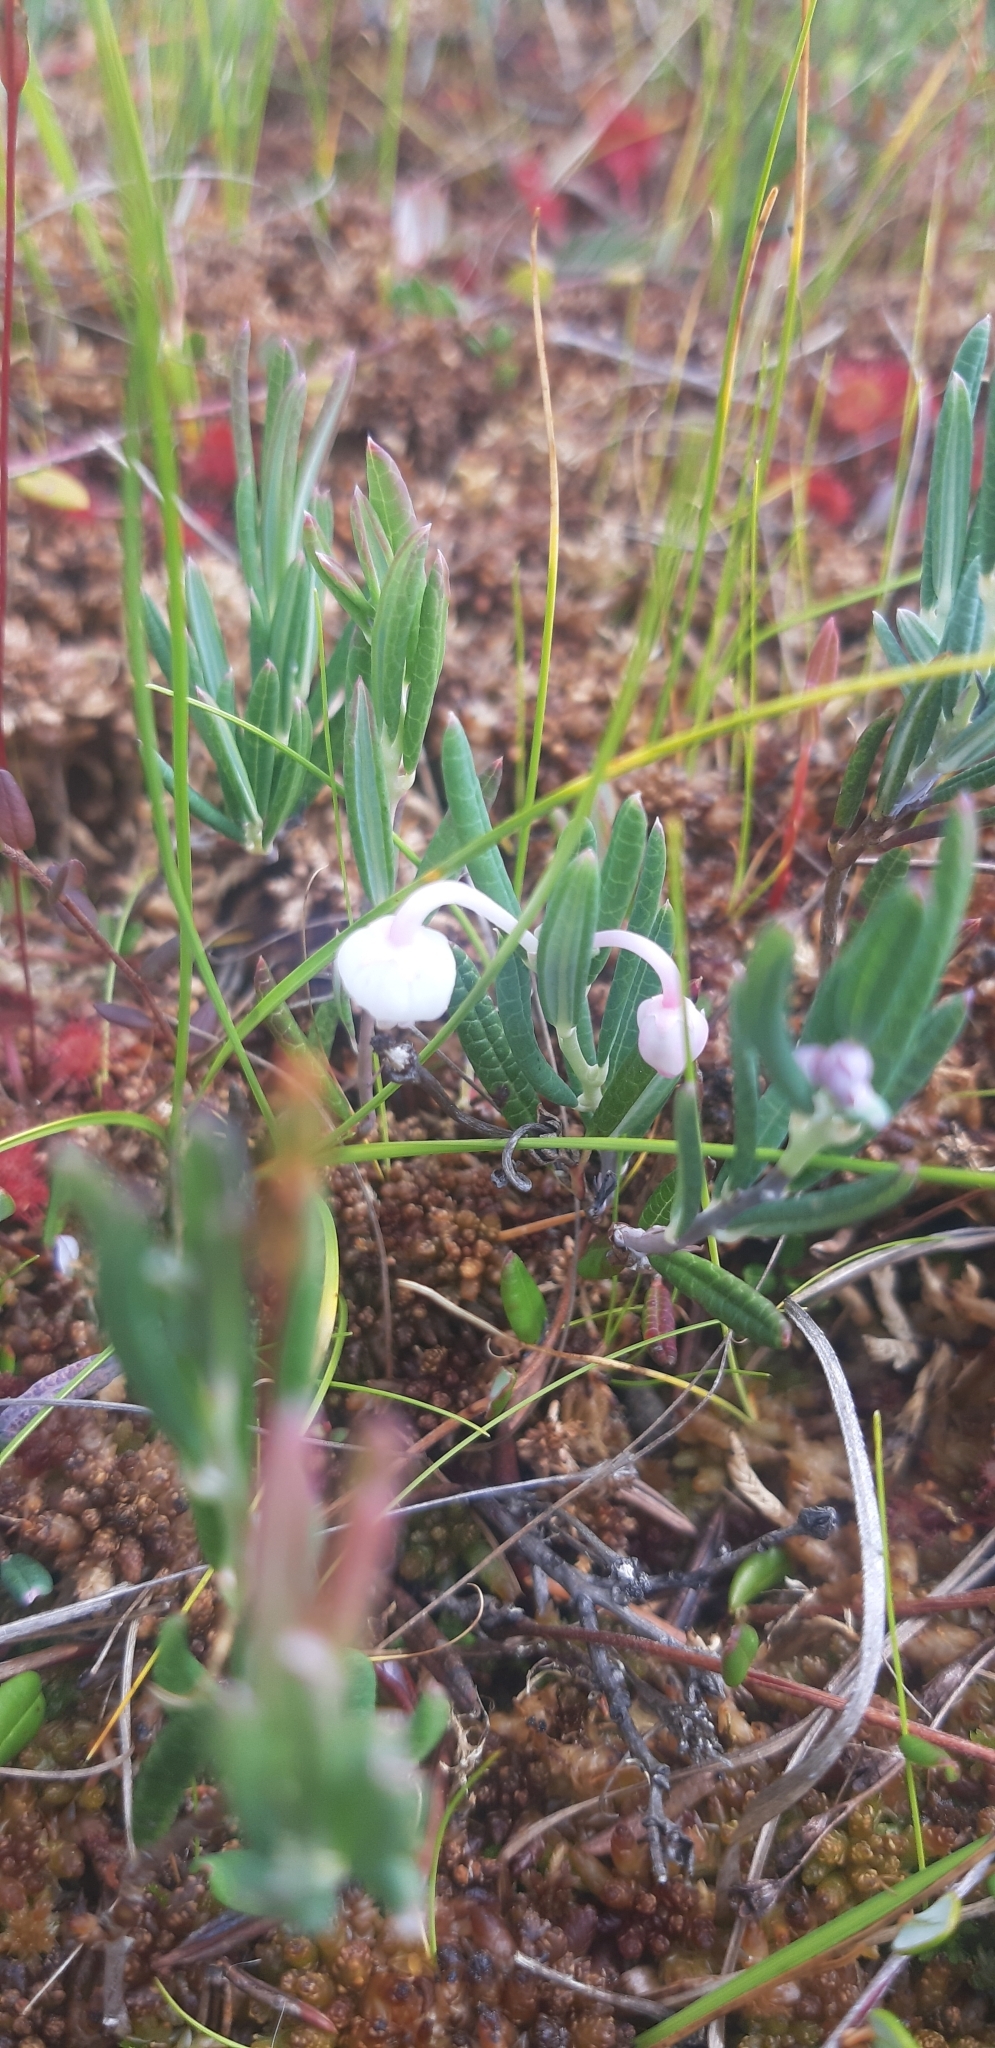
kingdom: Plantae
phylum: Tracheophyta
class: Magnoliopsida
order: Ericales
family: Ericaceae
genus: Andromeda
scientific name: Andromeda polifolia
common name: Bog-rosemary
